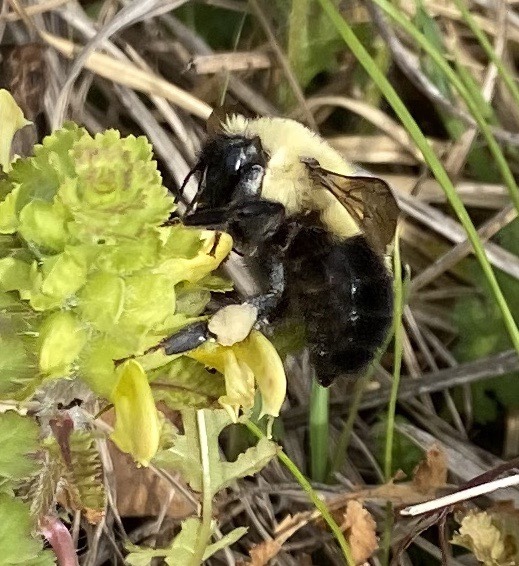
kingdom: Animalia
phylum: Arthropoda
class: Insecta
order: Hymenoptera
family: Apidae
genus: Bombus
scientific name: Bombus bimaculatus
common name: Two-spotted bumble bee
